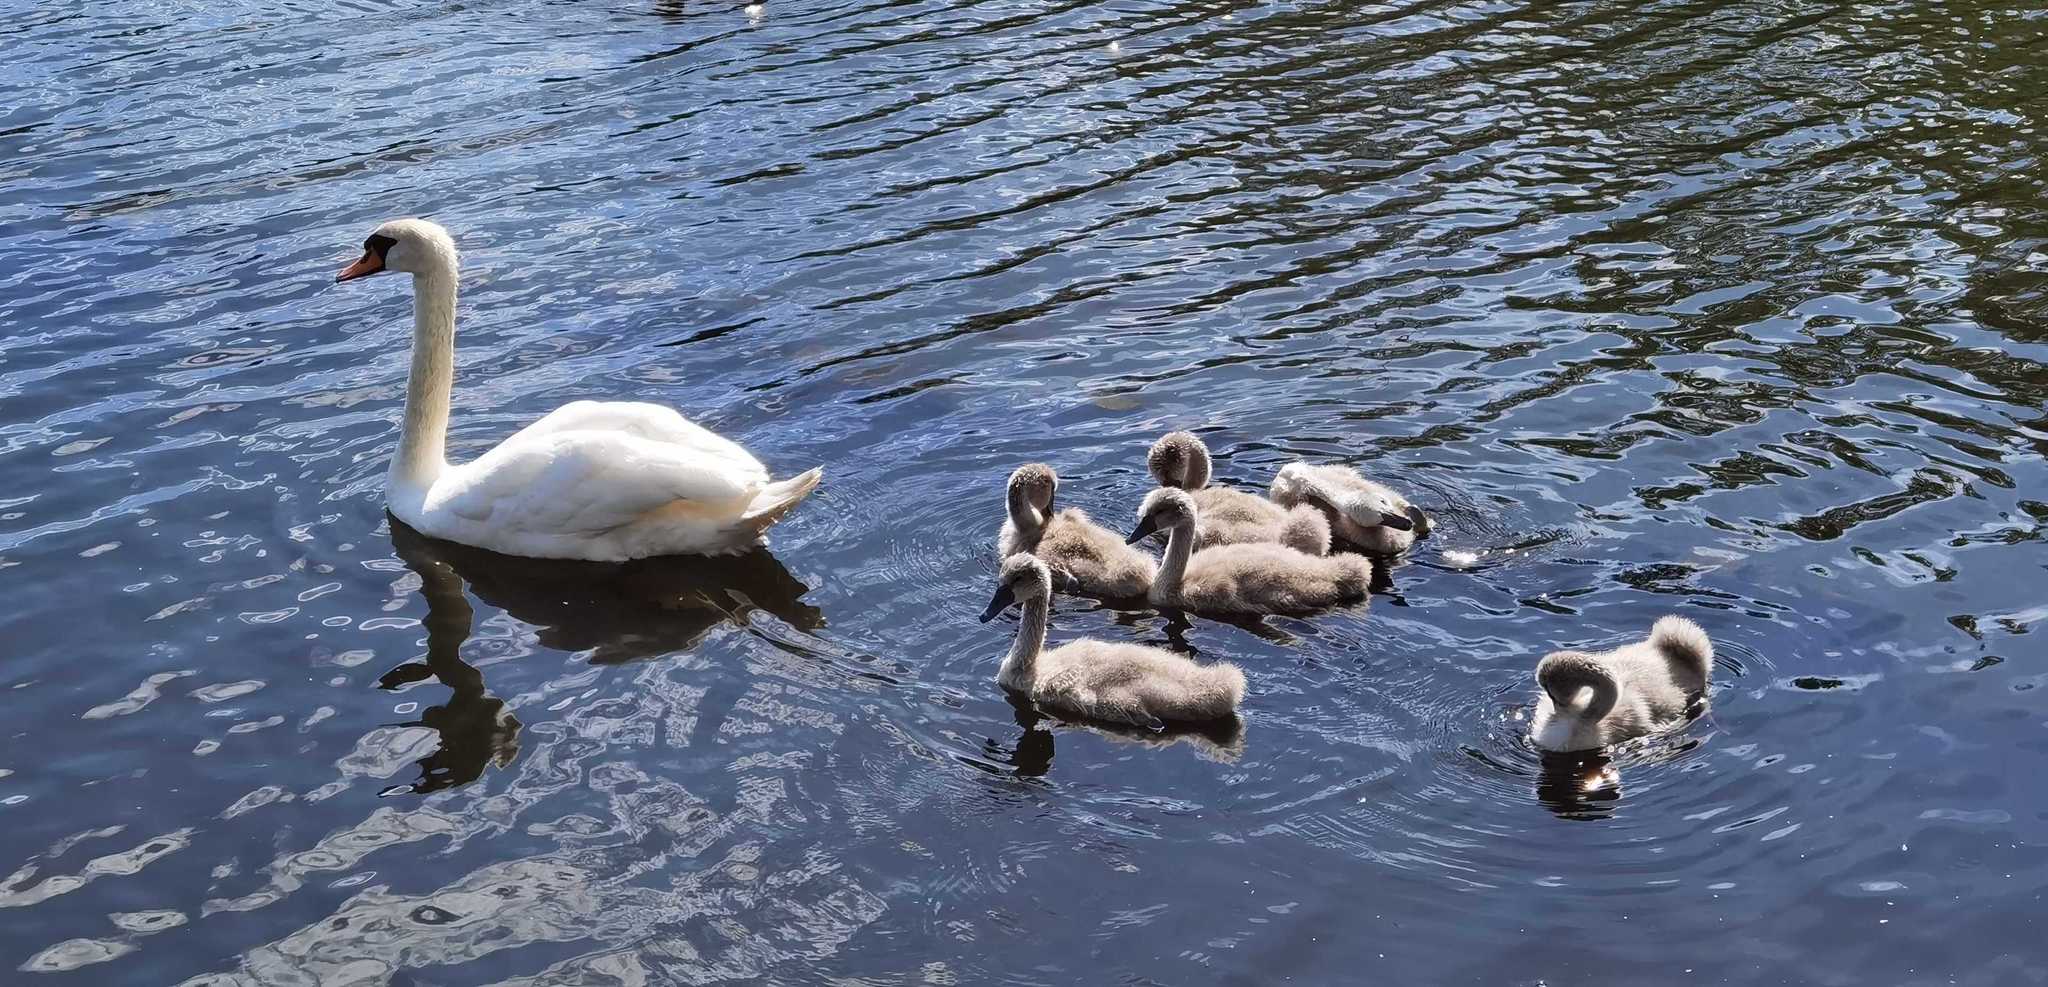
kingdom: Animalia
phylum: Chordata
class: Aves
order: Anseriformes
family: Anatidae
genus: Cygnus
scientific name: Cygnus olor
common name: Mute swan
